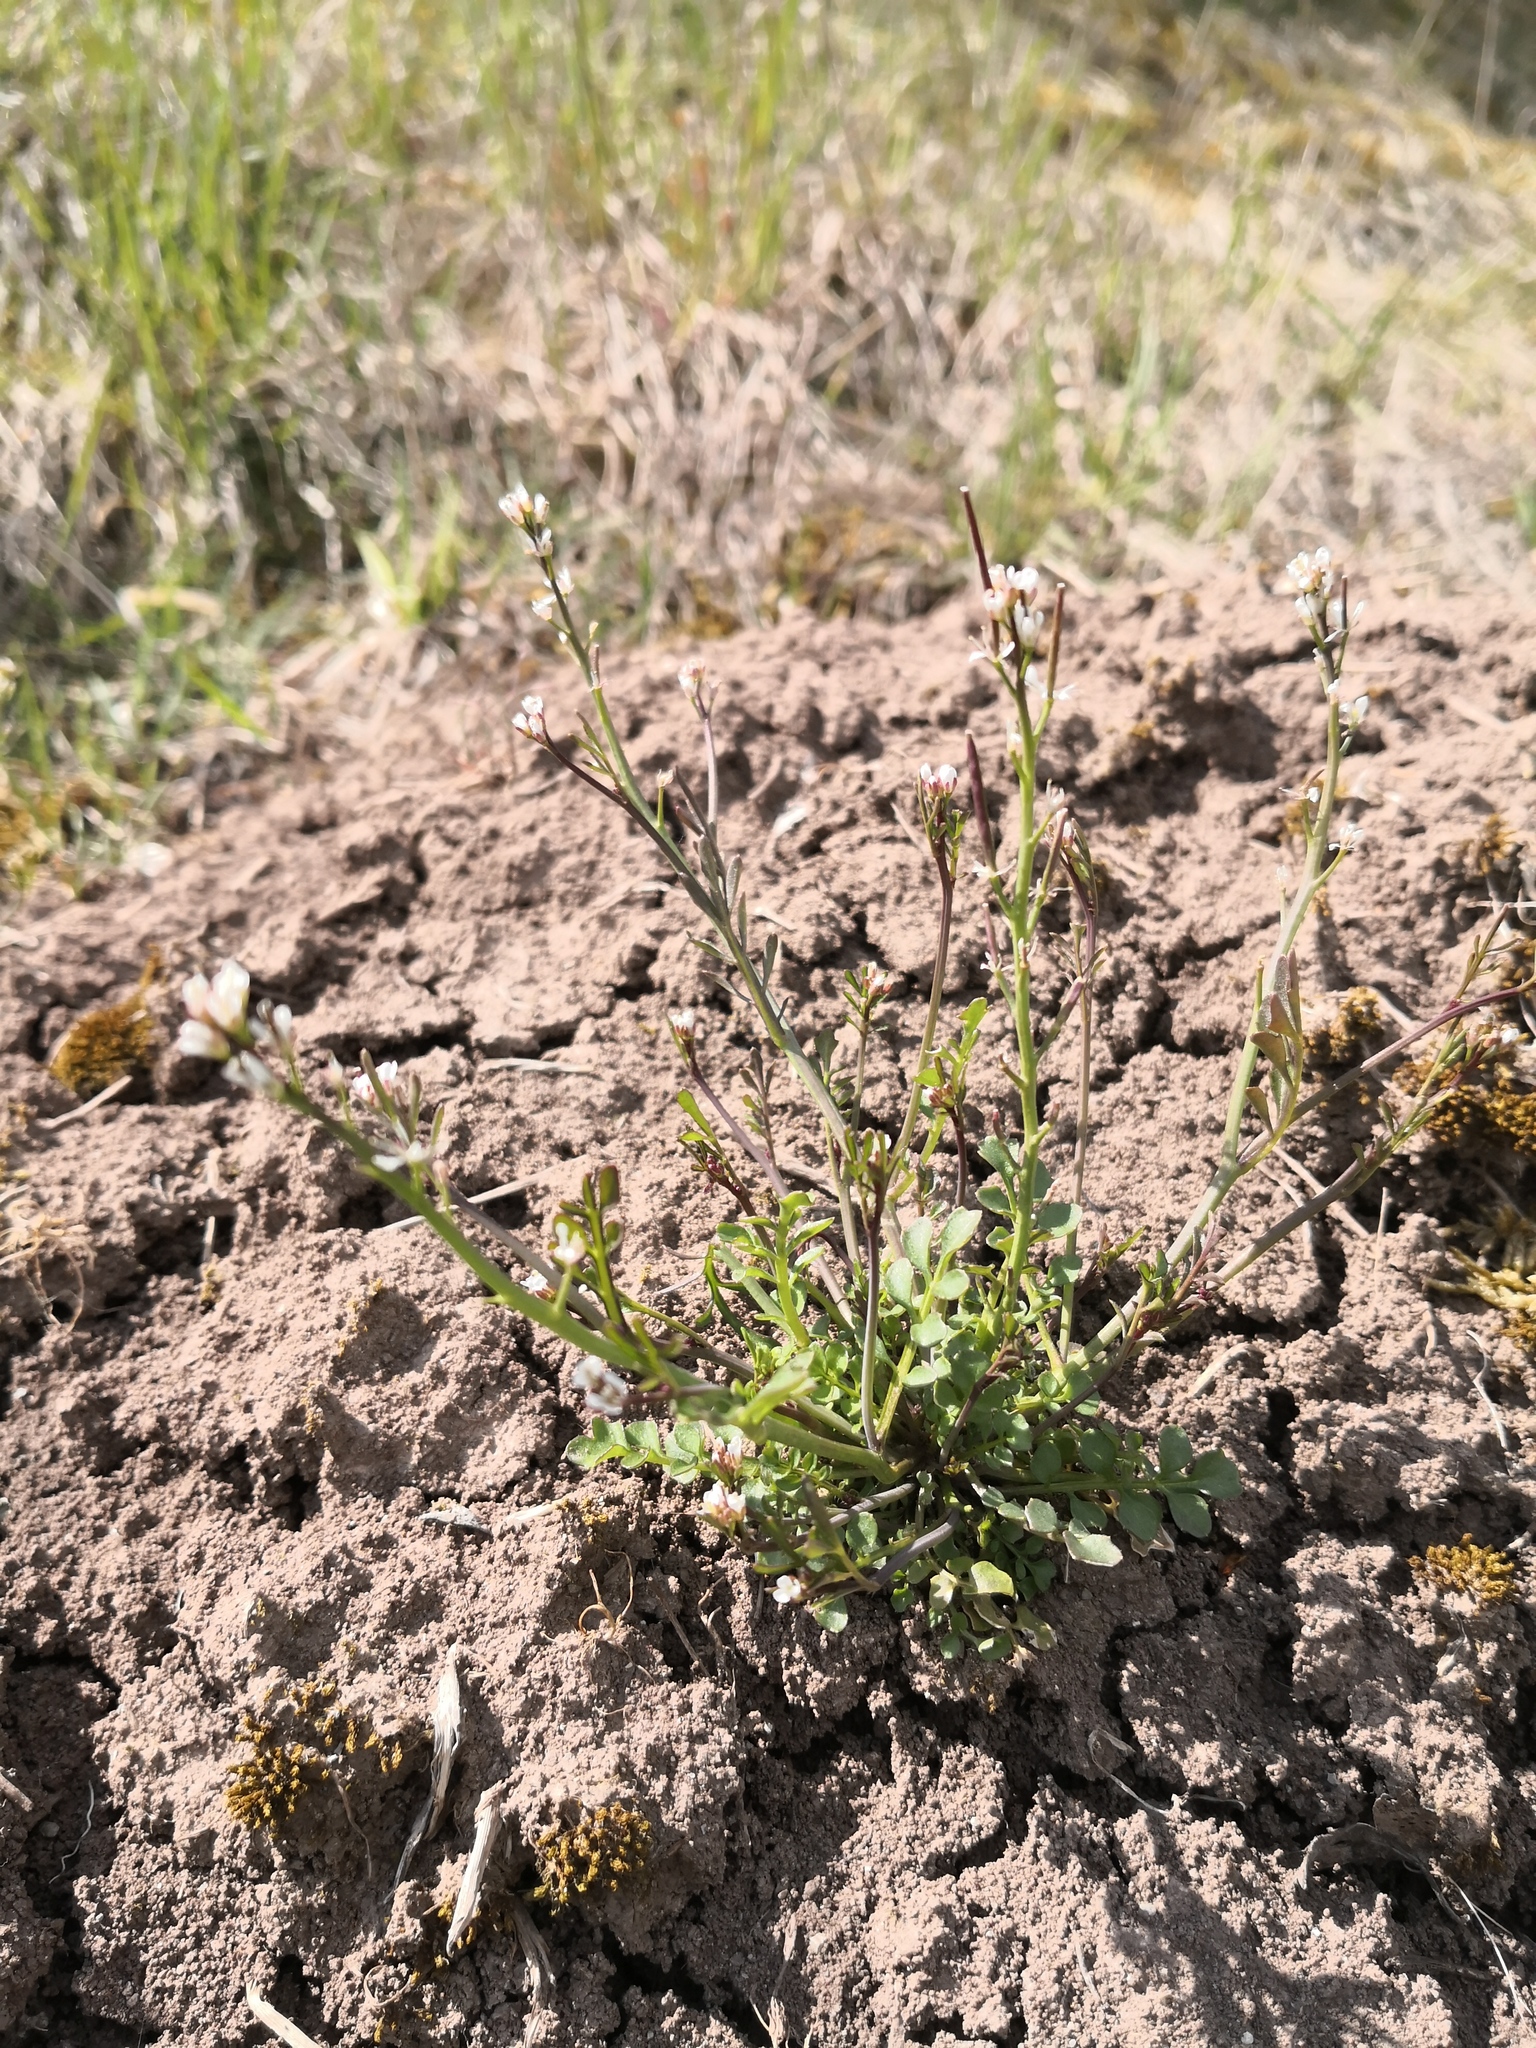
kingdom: Plantae
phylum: Tracheophyta
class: Magnoliopsida
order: Brassicales
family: Brassicaceae
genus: Cardamine
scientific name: Cardamine hirsuta
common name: Hairy bittercress
